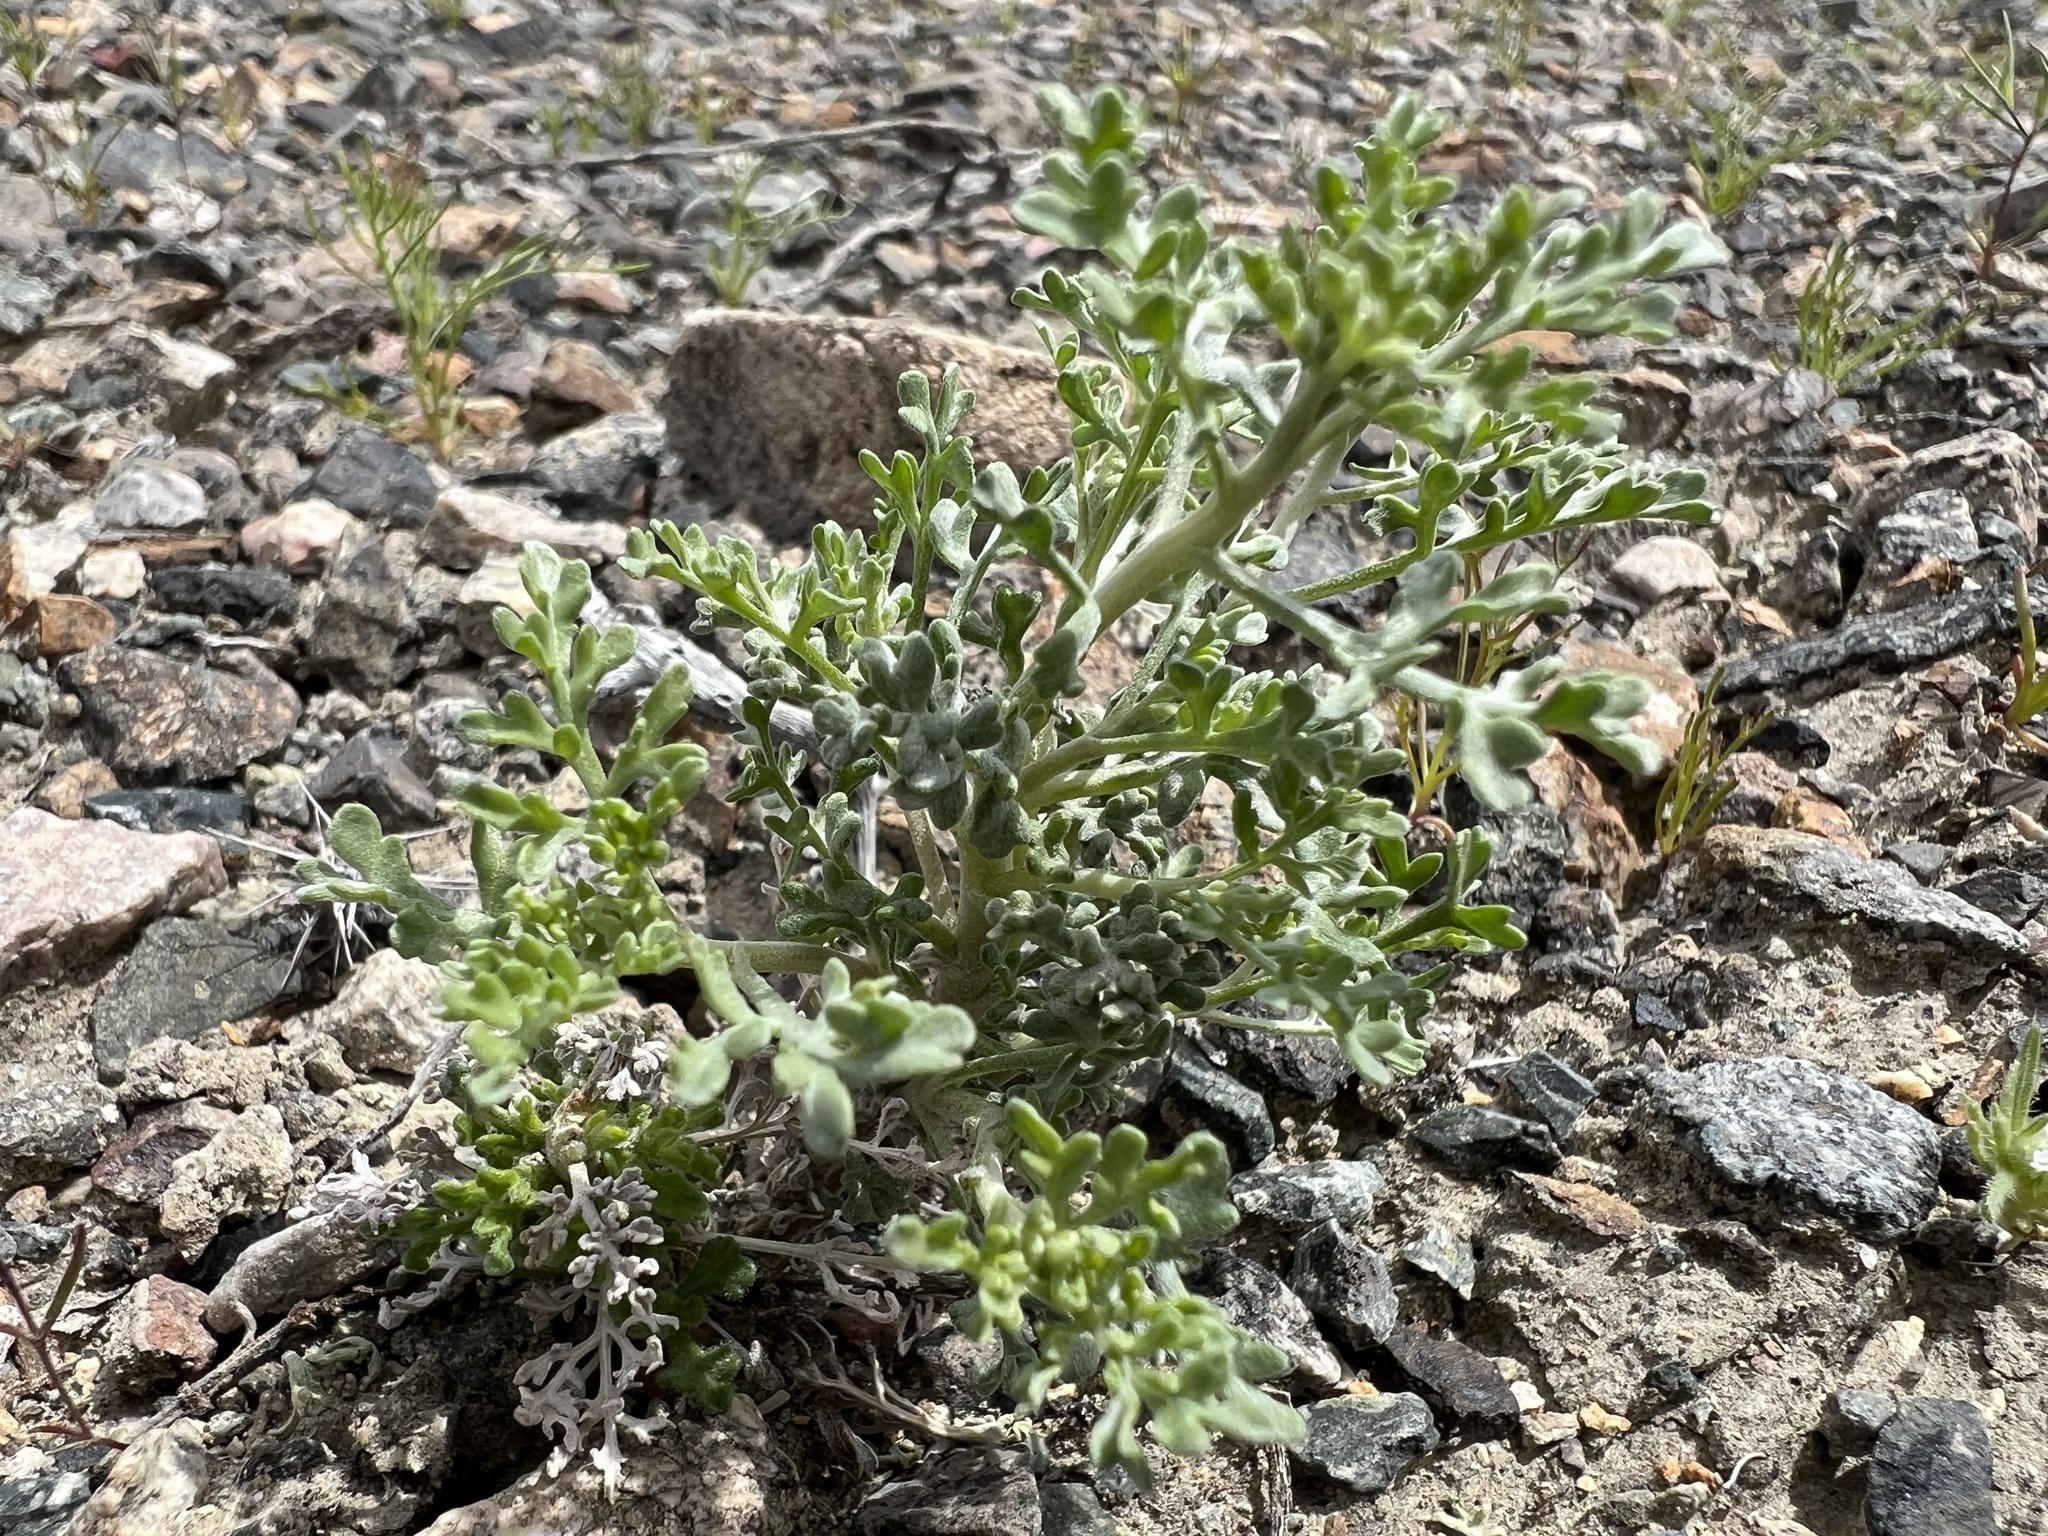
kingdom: Plantae
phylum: Tracheophyta
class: Magnoliopsida
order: Asterales
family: Asteraceae
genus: Ambrosia
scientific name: Ambrosia dumosa
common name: Bur-sage
